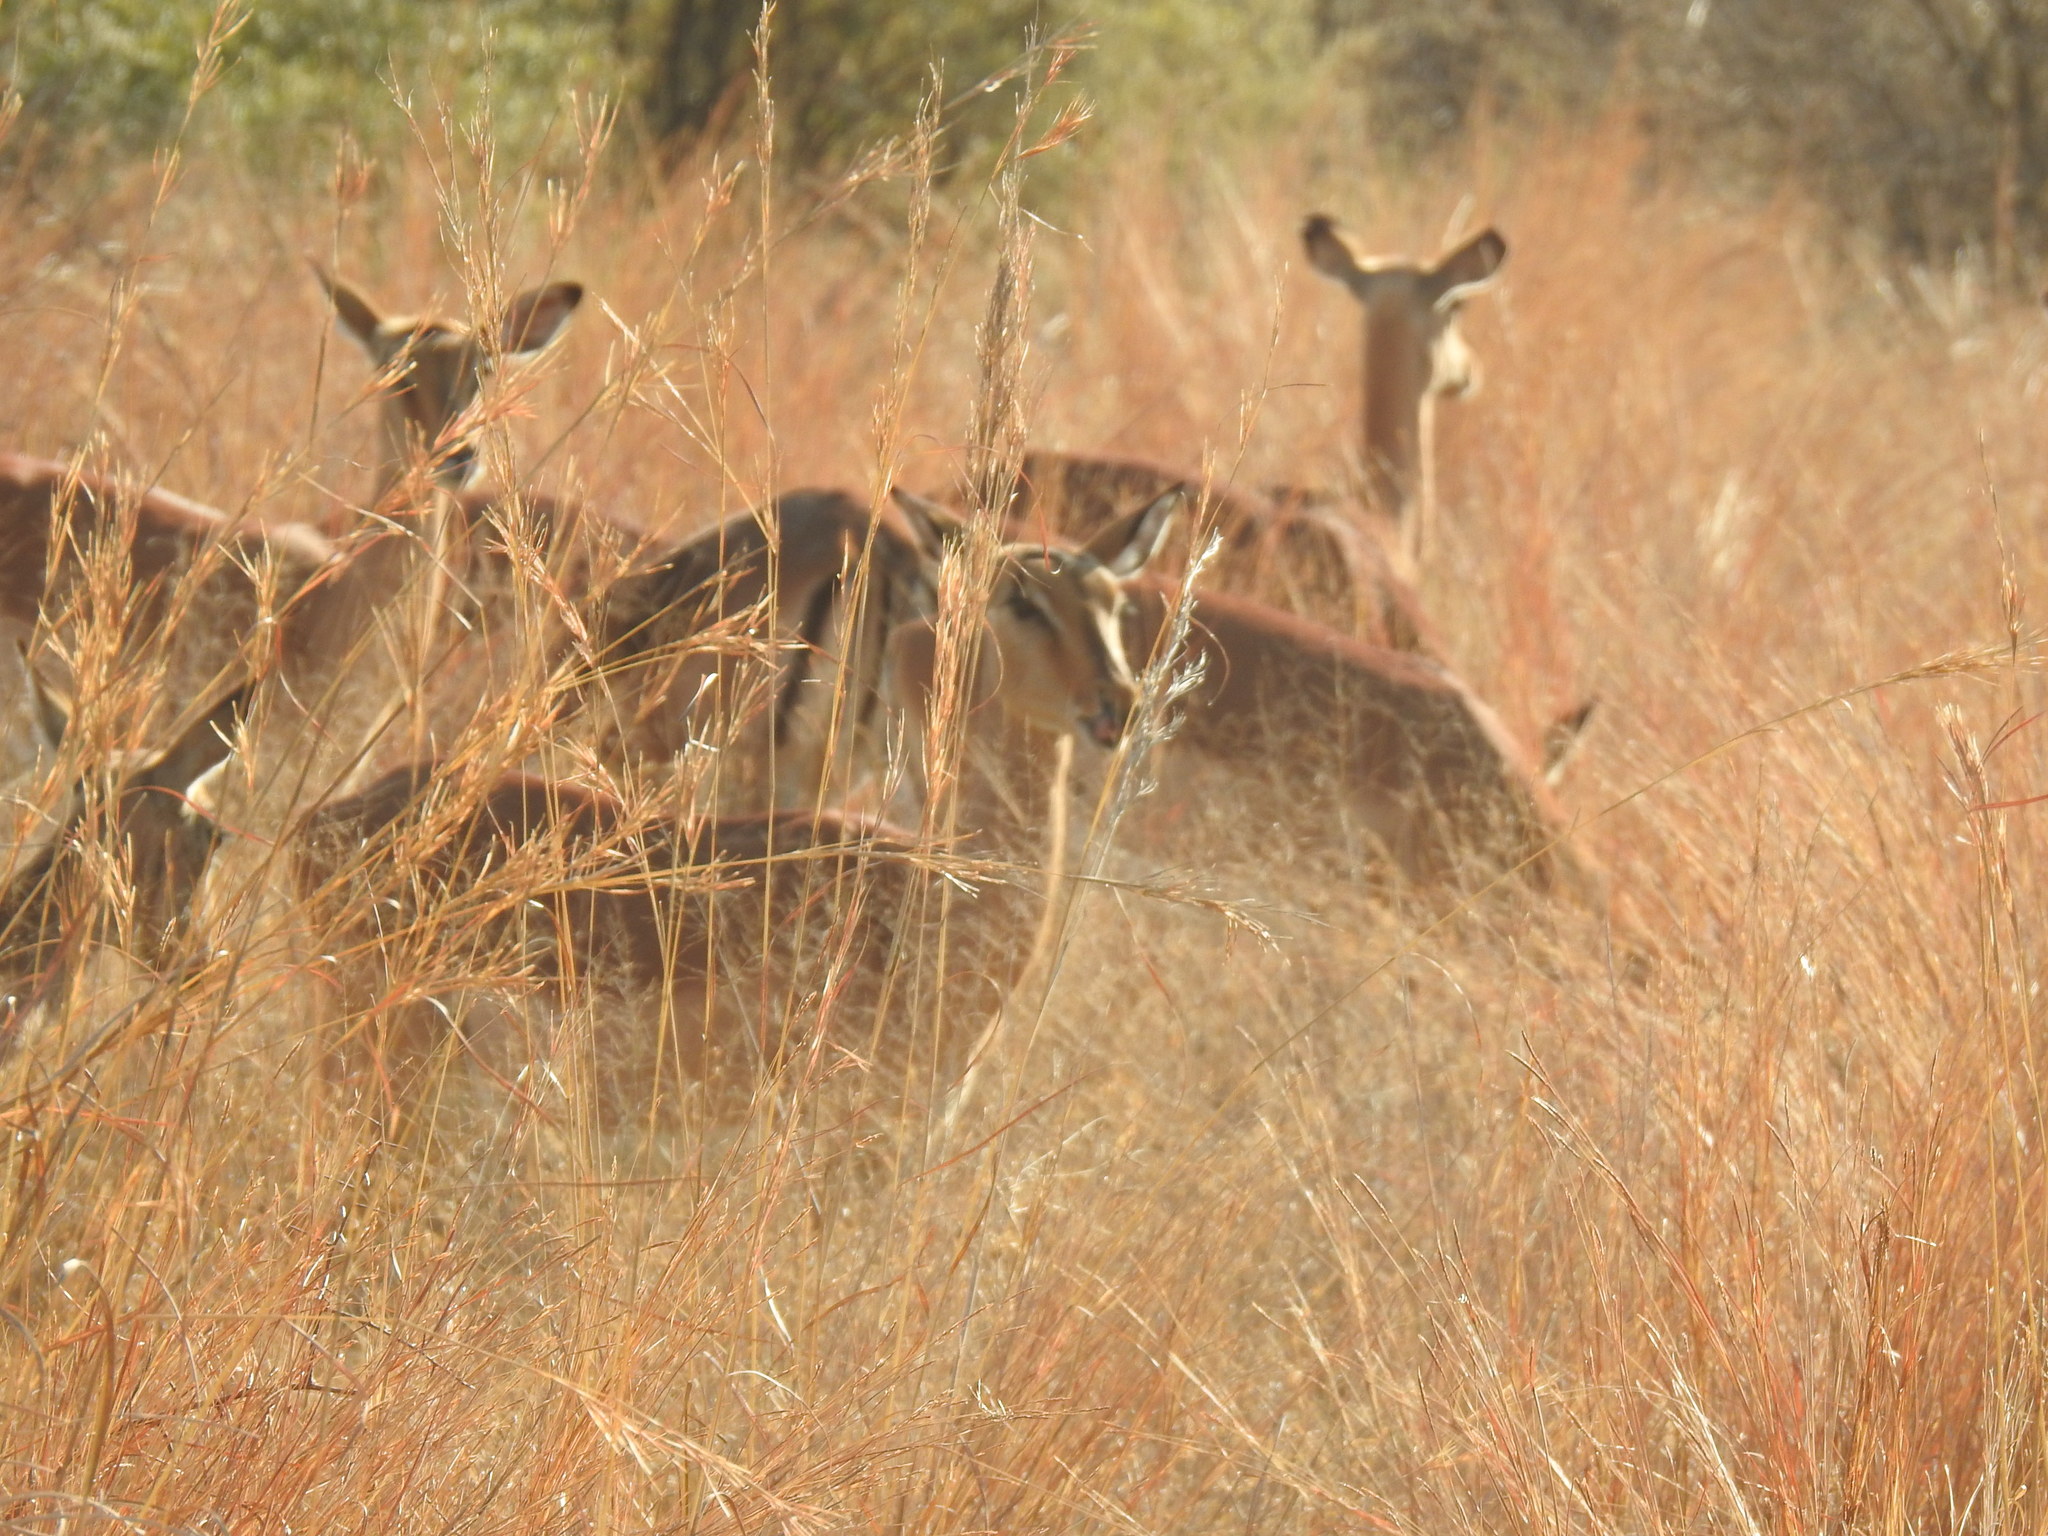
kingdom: Animalia
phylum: Chordata
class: Mammalia
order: Artiodactyla
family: Bovidae
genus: Aepyceros
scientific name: Aepyceros melampus
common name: Impala
